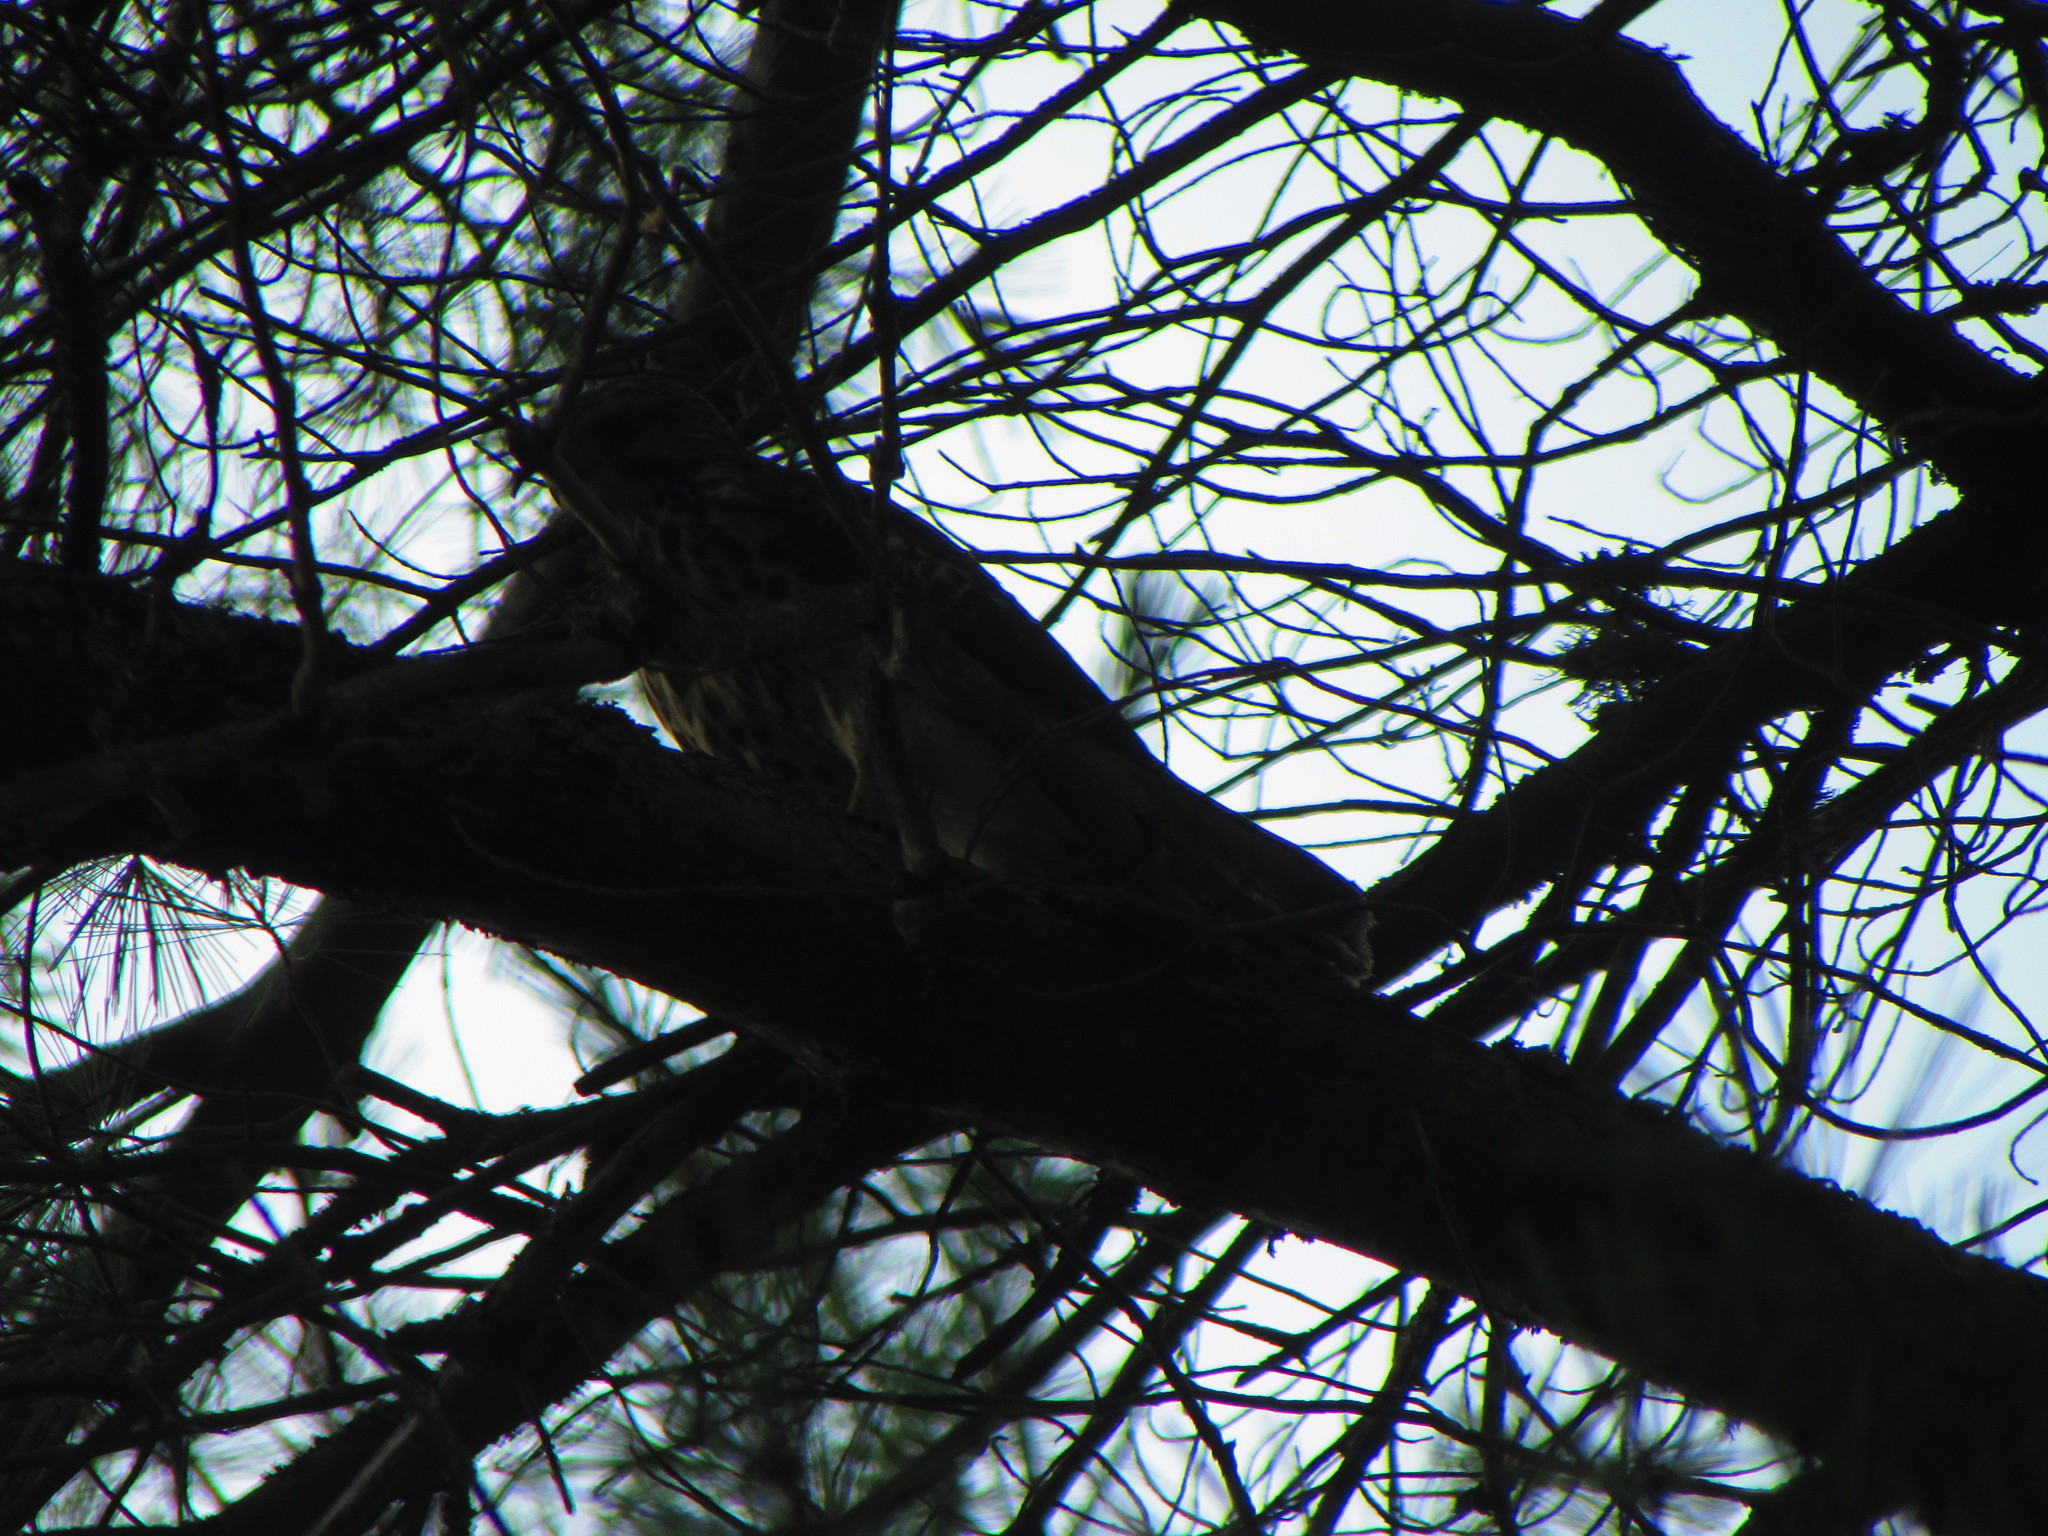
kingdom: Animalia
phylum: Chordata
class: Aves
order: Accipitriformes
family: Accipitridae
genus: Buteo
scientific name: Buteo platypterus
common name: Broad-winged hawk
